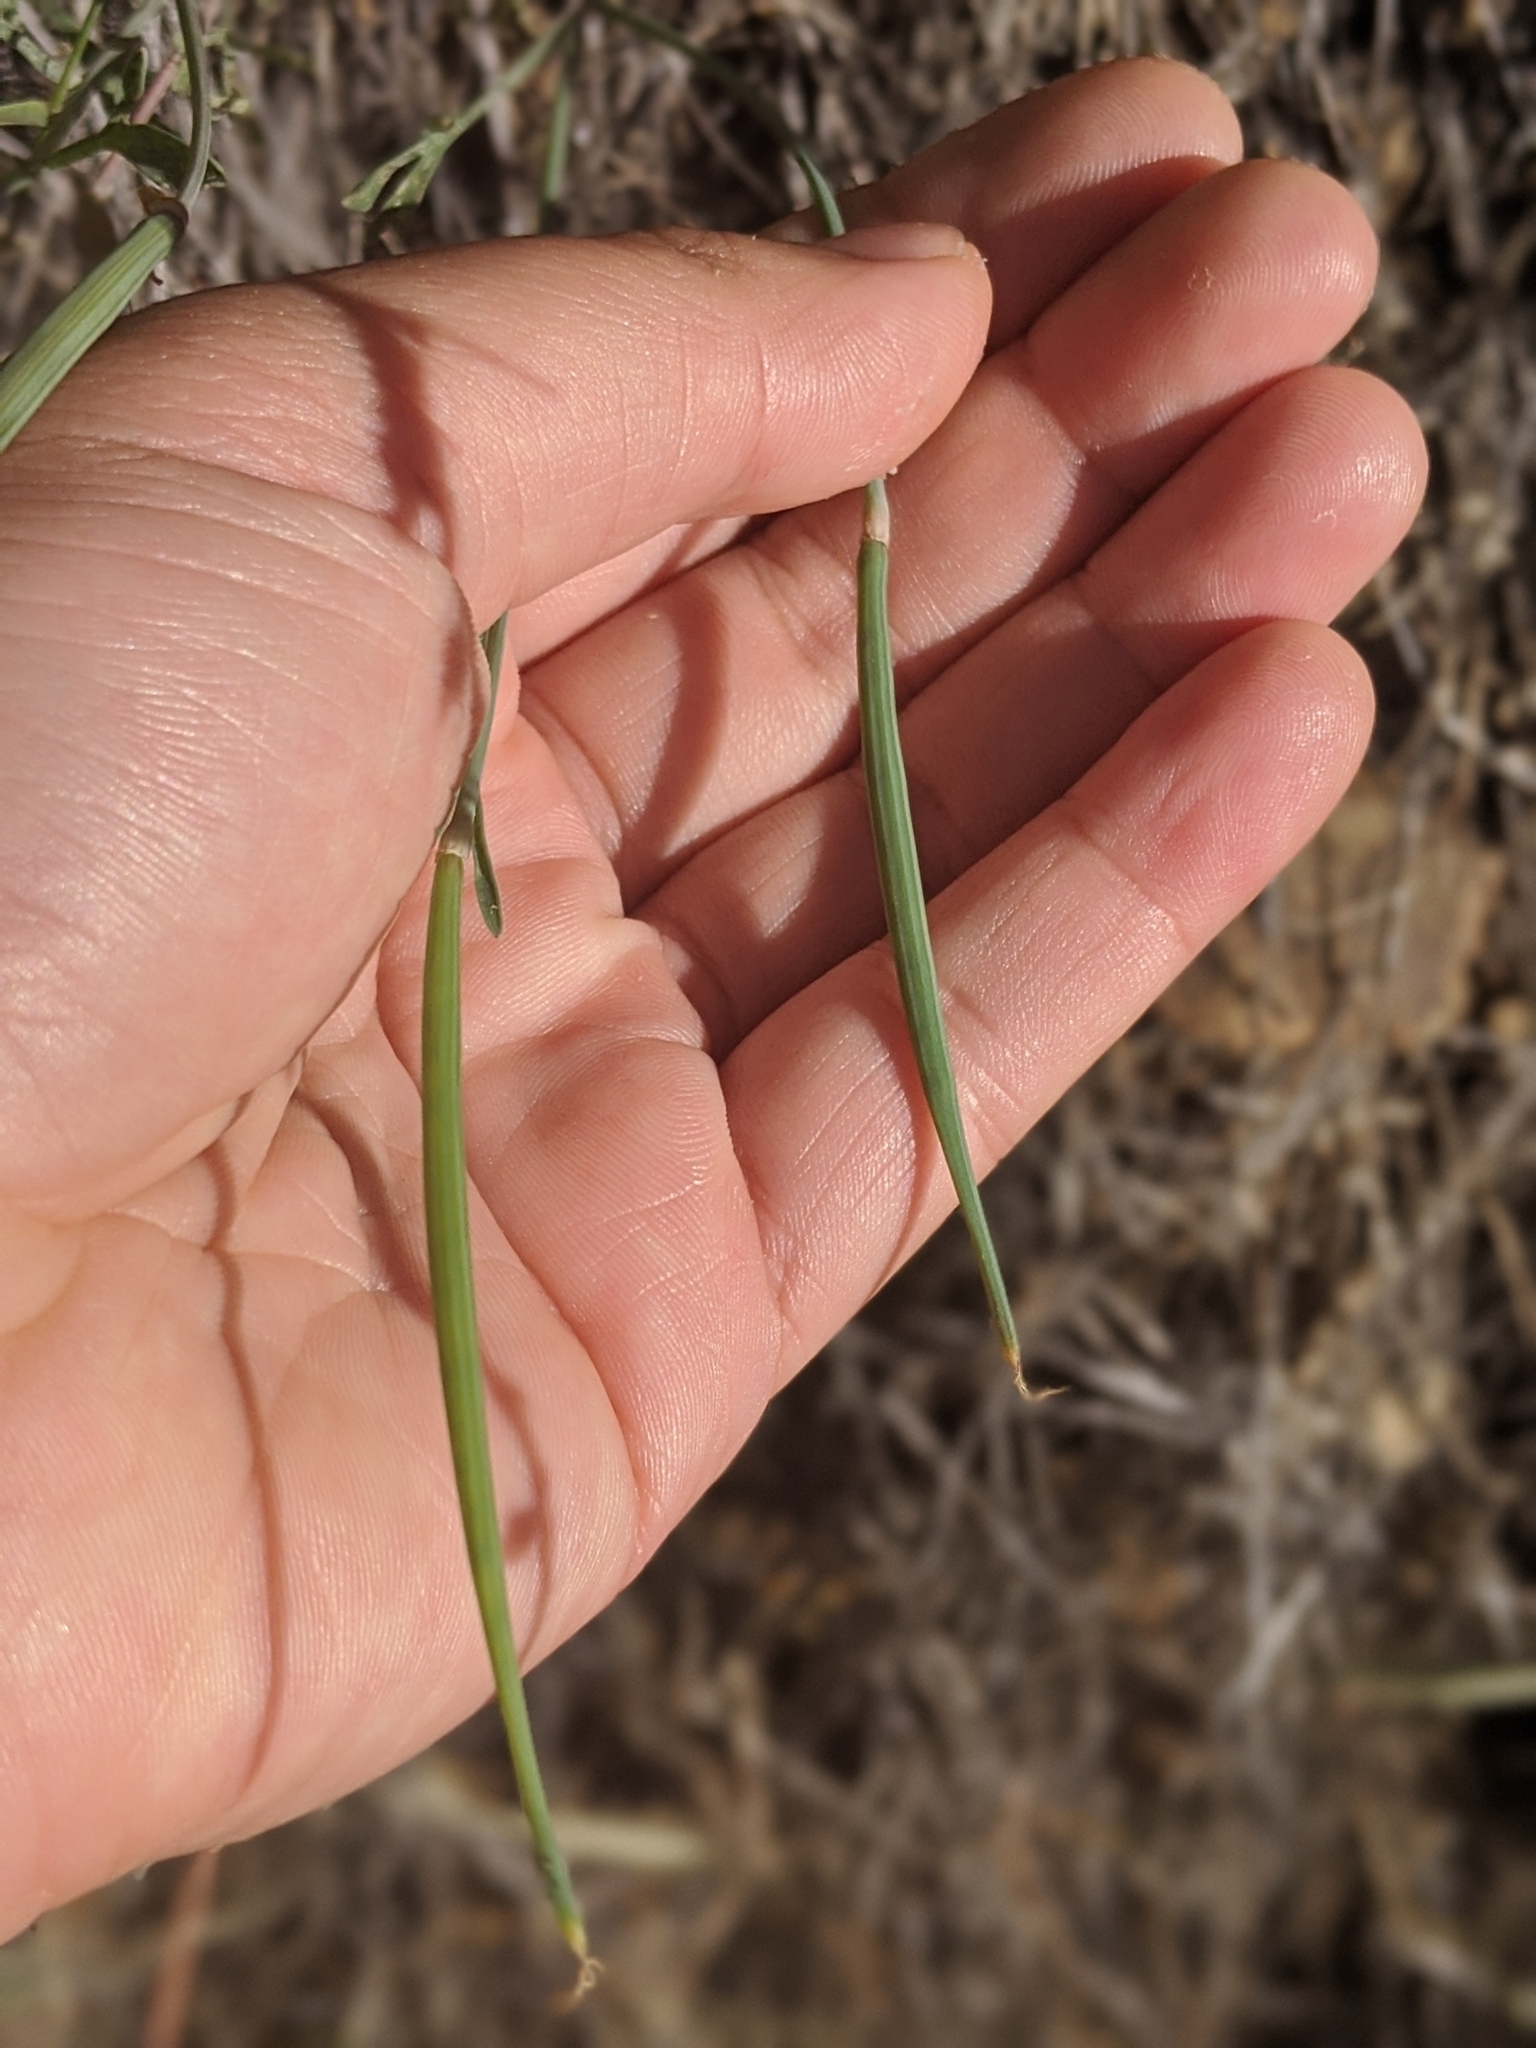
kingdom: Plantae
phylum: Tracheophyta
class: Magnoliopsida
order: Ranunculales
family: Papaveraceae
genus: Eschscholzia
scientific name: Eschscholzia caespitosa
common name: Tufted california-poppy
